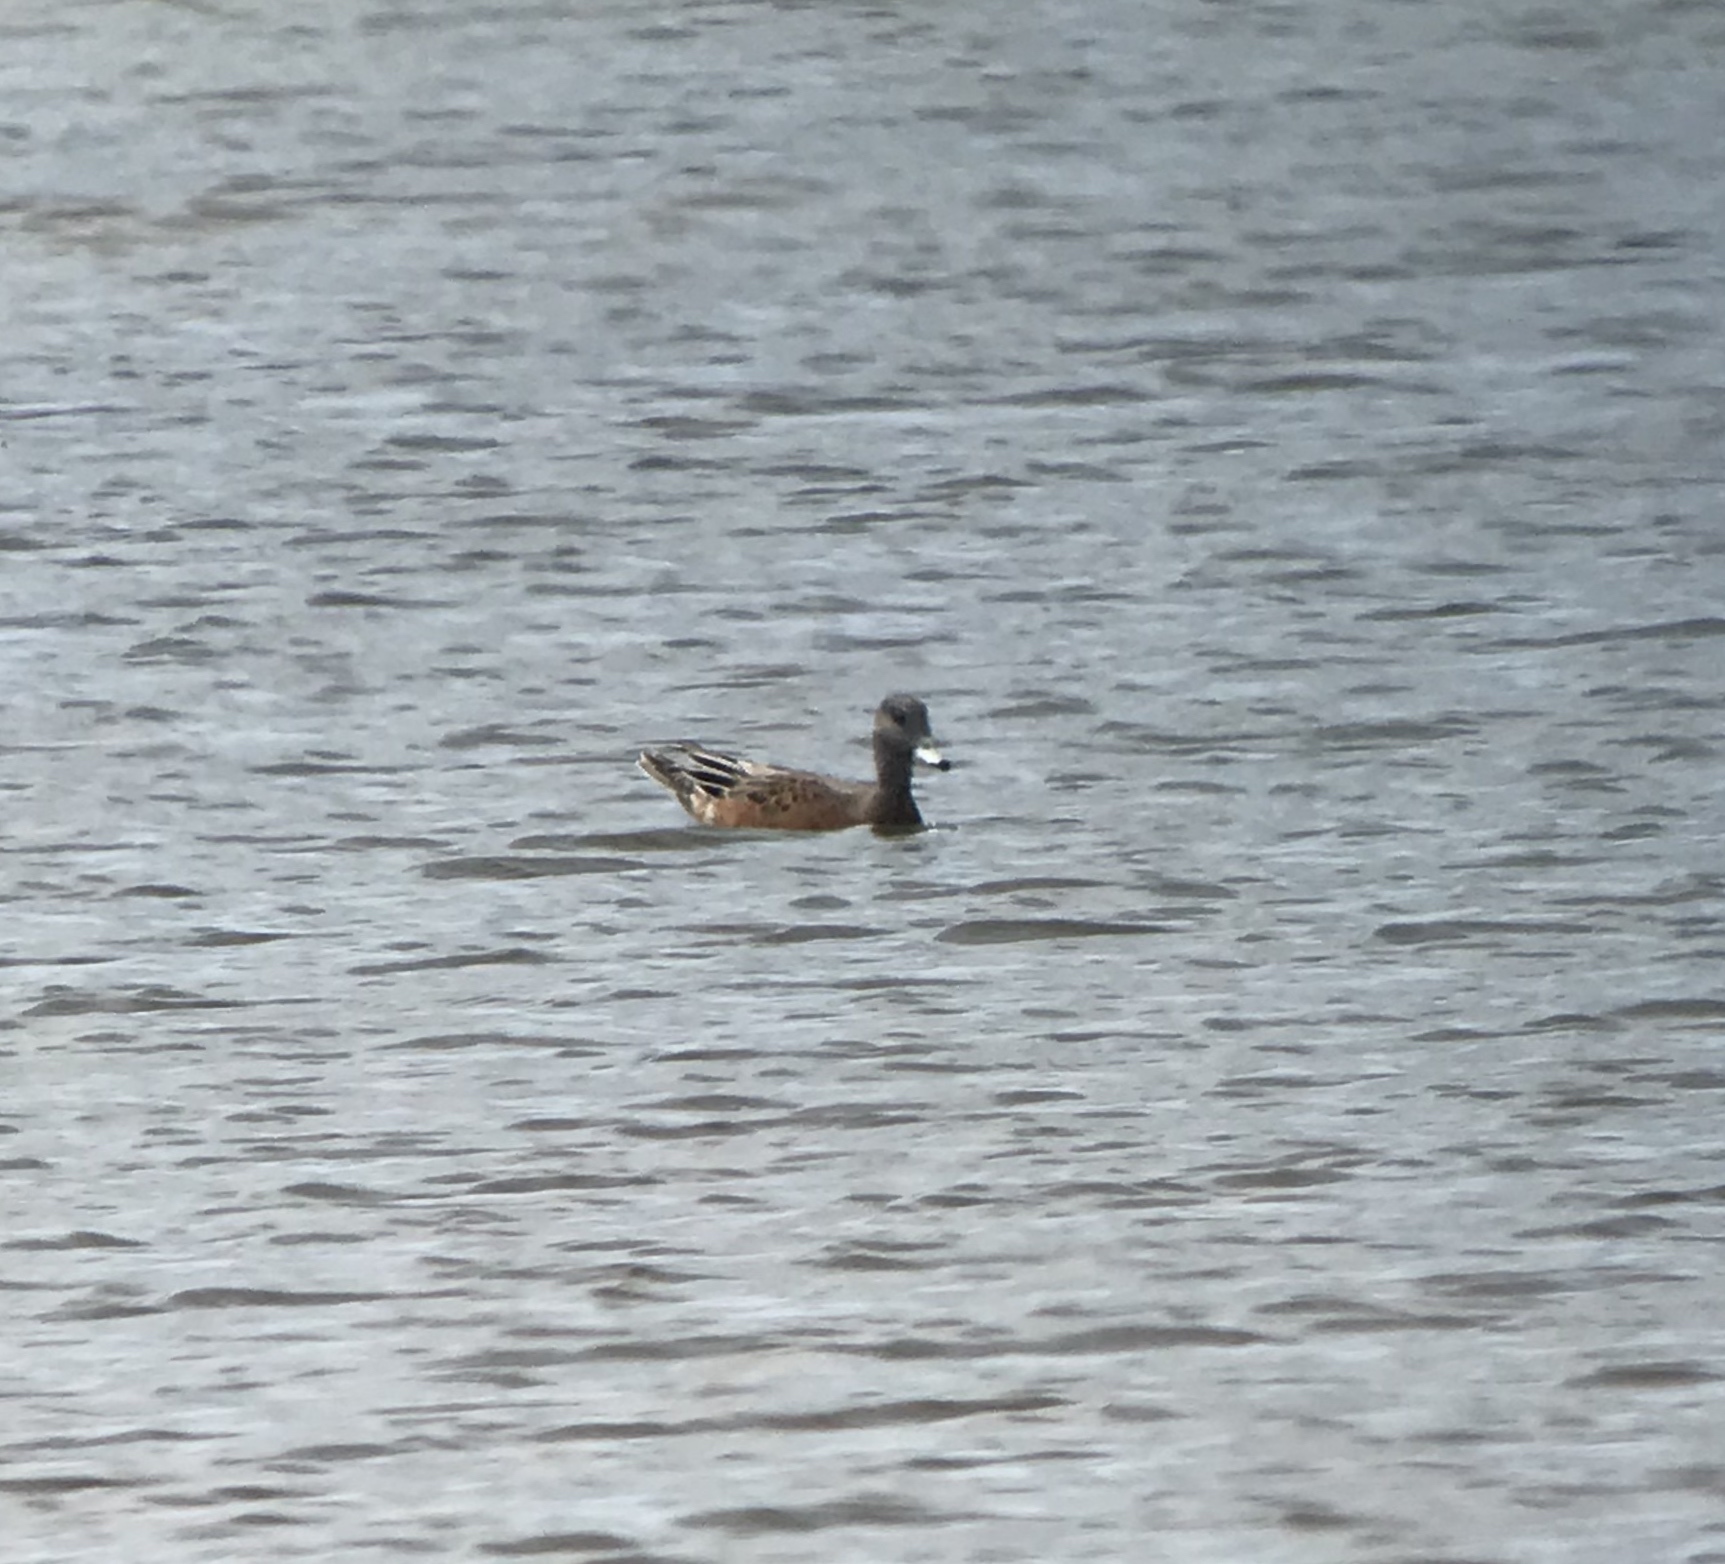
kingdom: Animalia
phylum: Chordata
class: Aves
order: Anseriformes
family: Anatidae
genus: Mareca
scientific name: Mareca americana
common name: American wigeon
